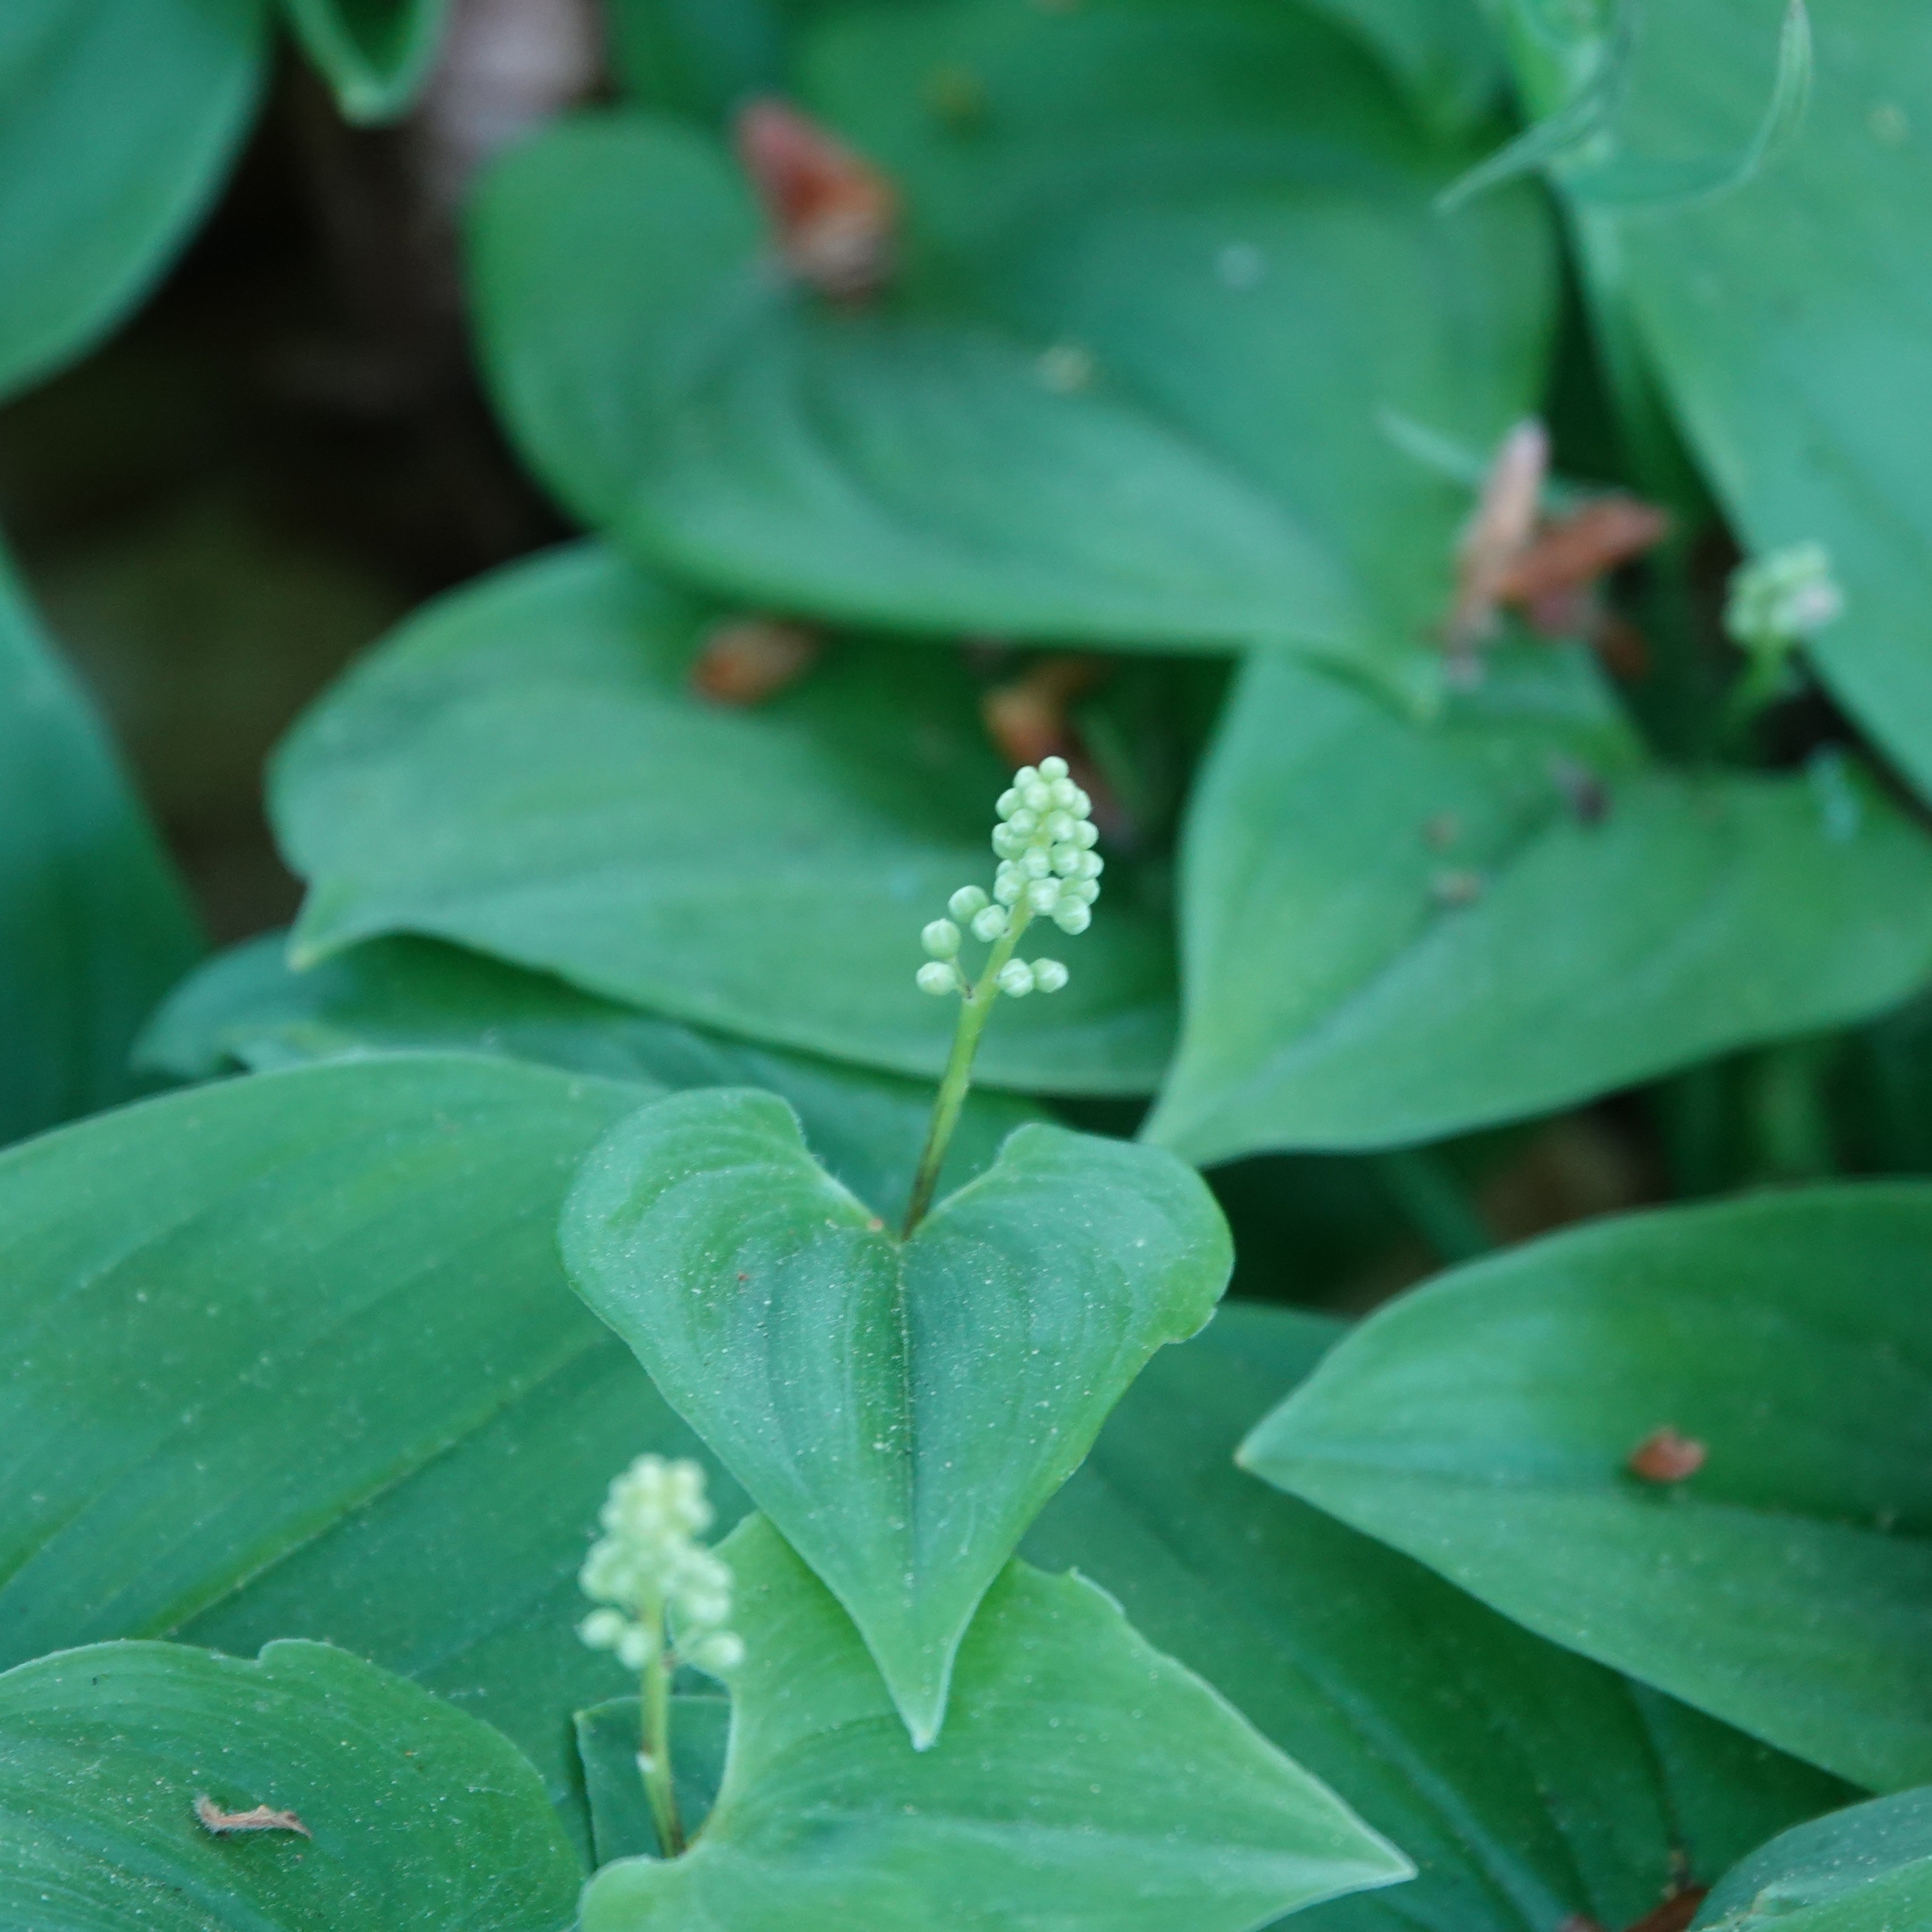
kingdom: Plantae
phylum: Tracheophyta
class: Liliopsida
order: Asparagales
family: Asparagaceae
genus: Maianthemum
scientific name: Maianthemum bifolium
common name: May lily
